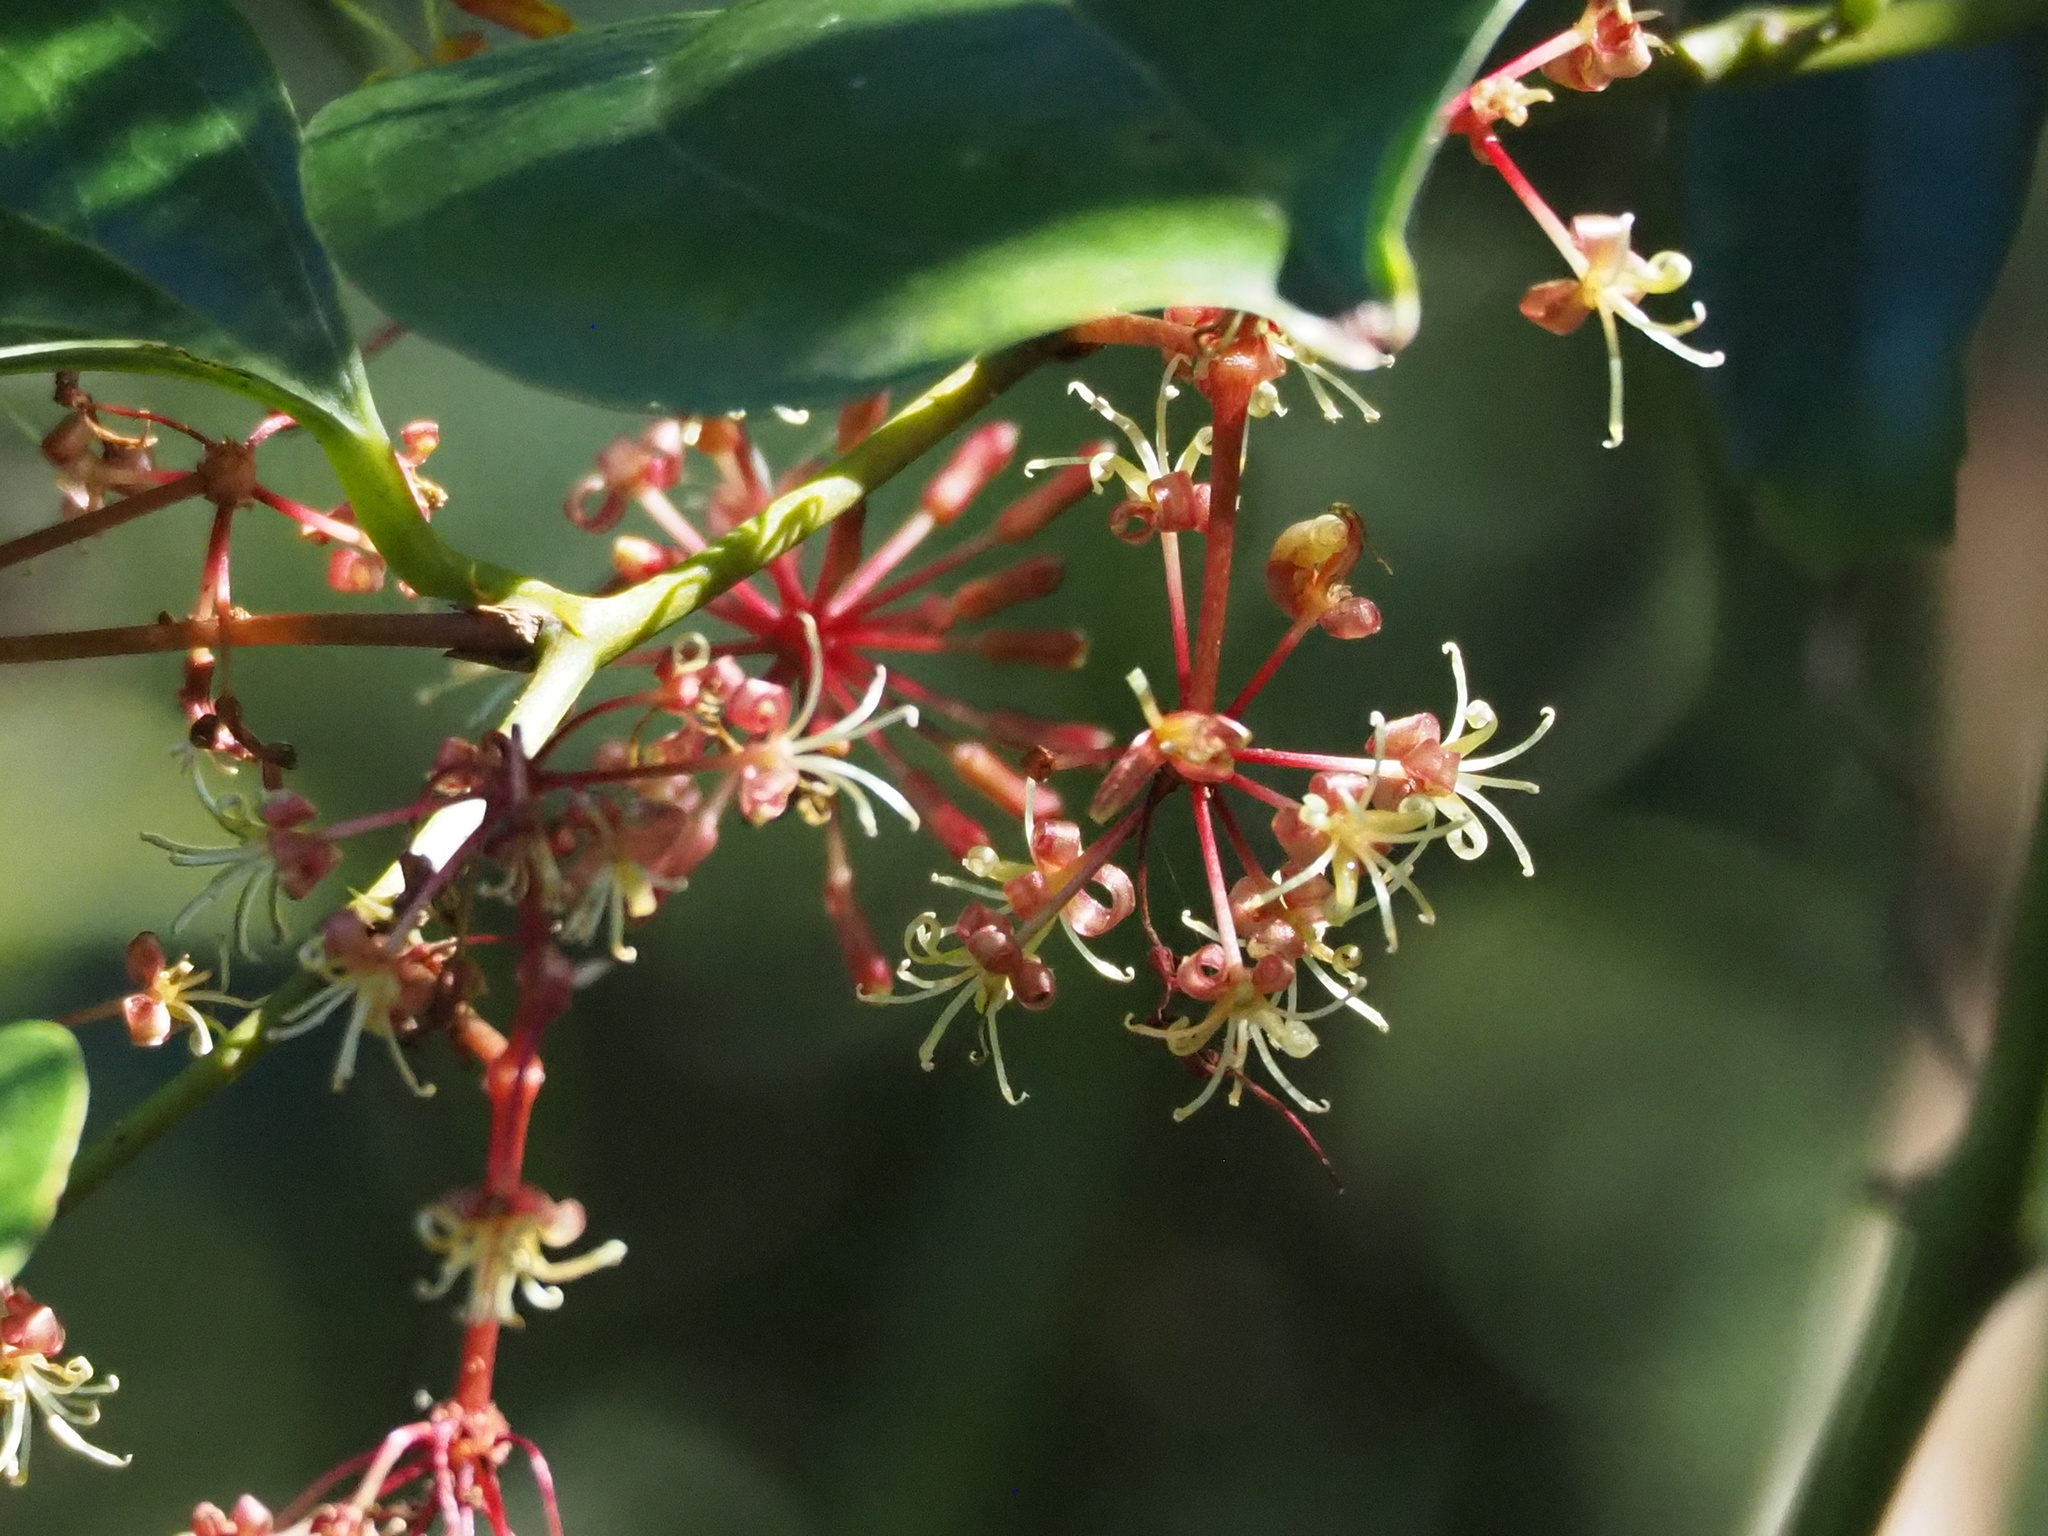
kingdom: Plantae
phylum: Tracheophyta
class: Liliopsida
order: Liliales
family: Smilacaceae
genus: Smilax
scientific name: Smilax bracteata
